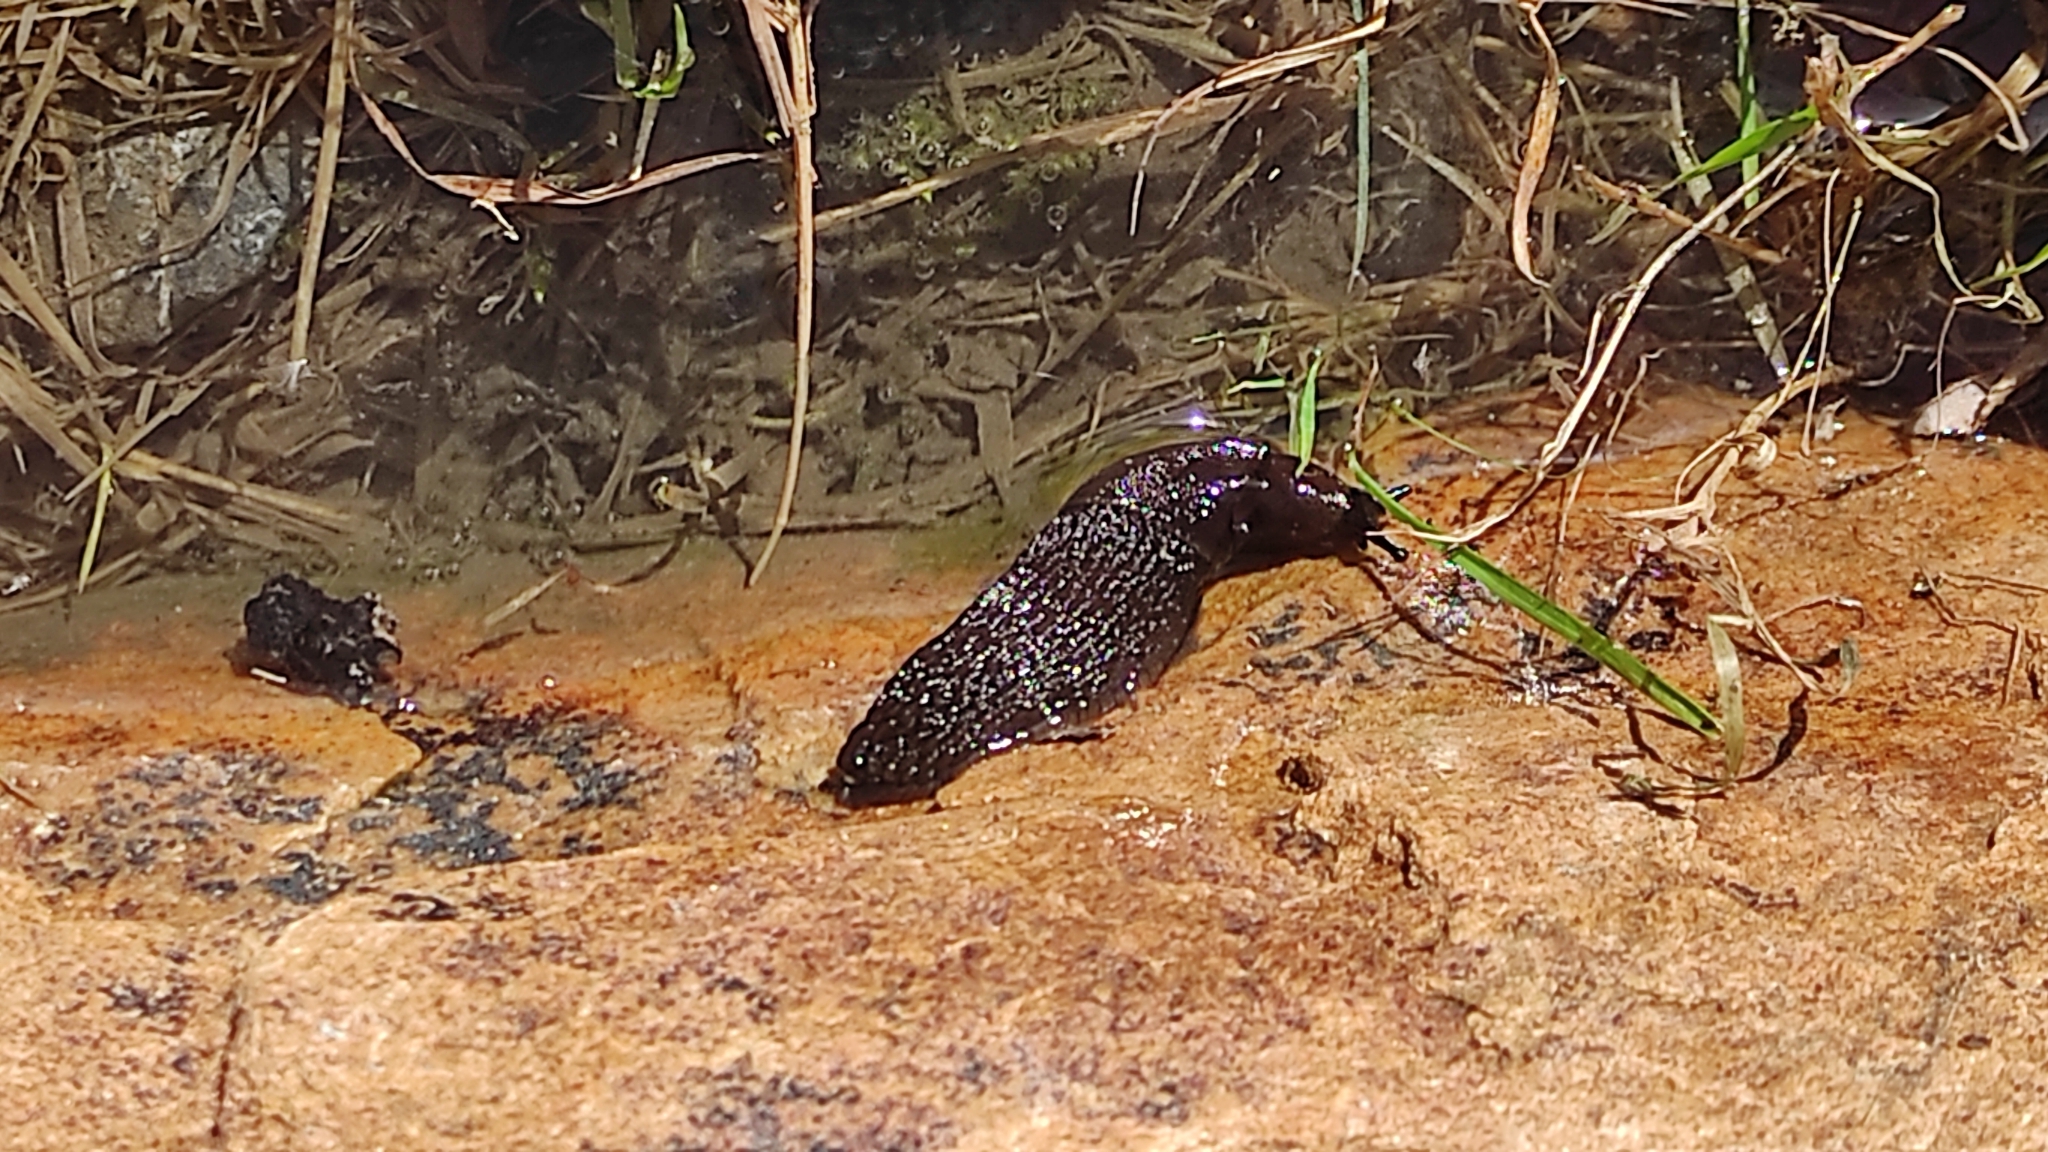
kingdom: Animalia
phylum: Mollusca
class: Gastropoda
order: Stylommatophora
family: Arionidae
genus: Arion
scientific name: Arion ater
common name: Black arion
